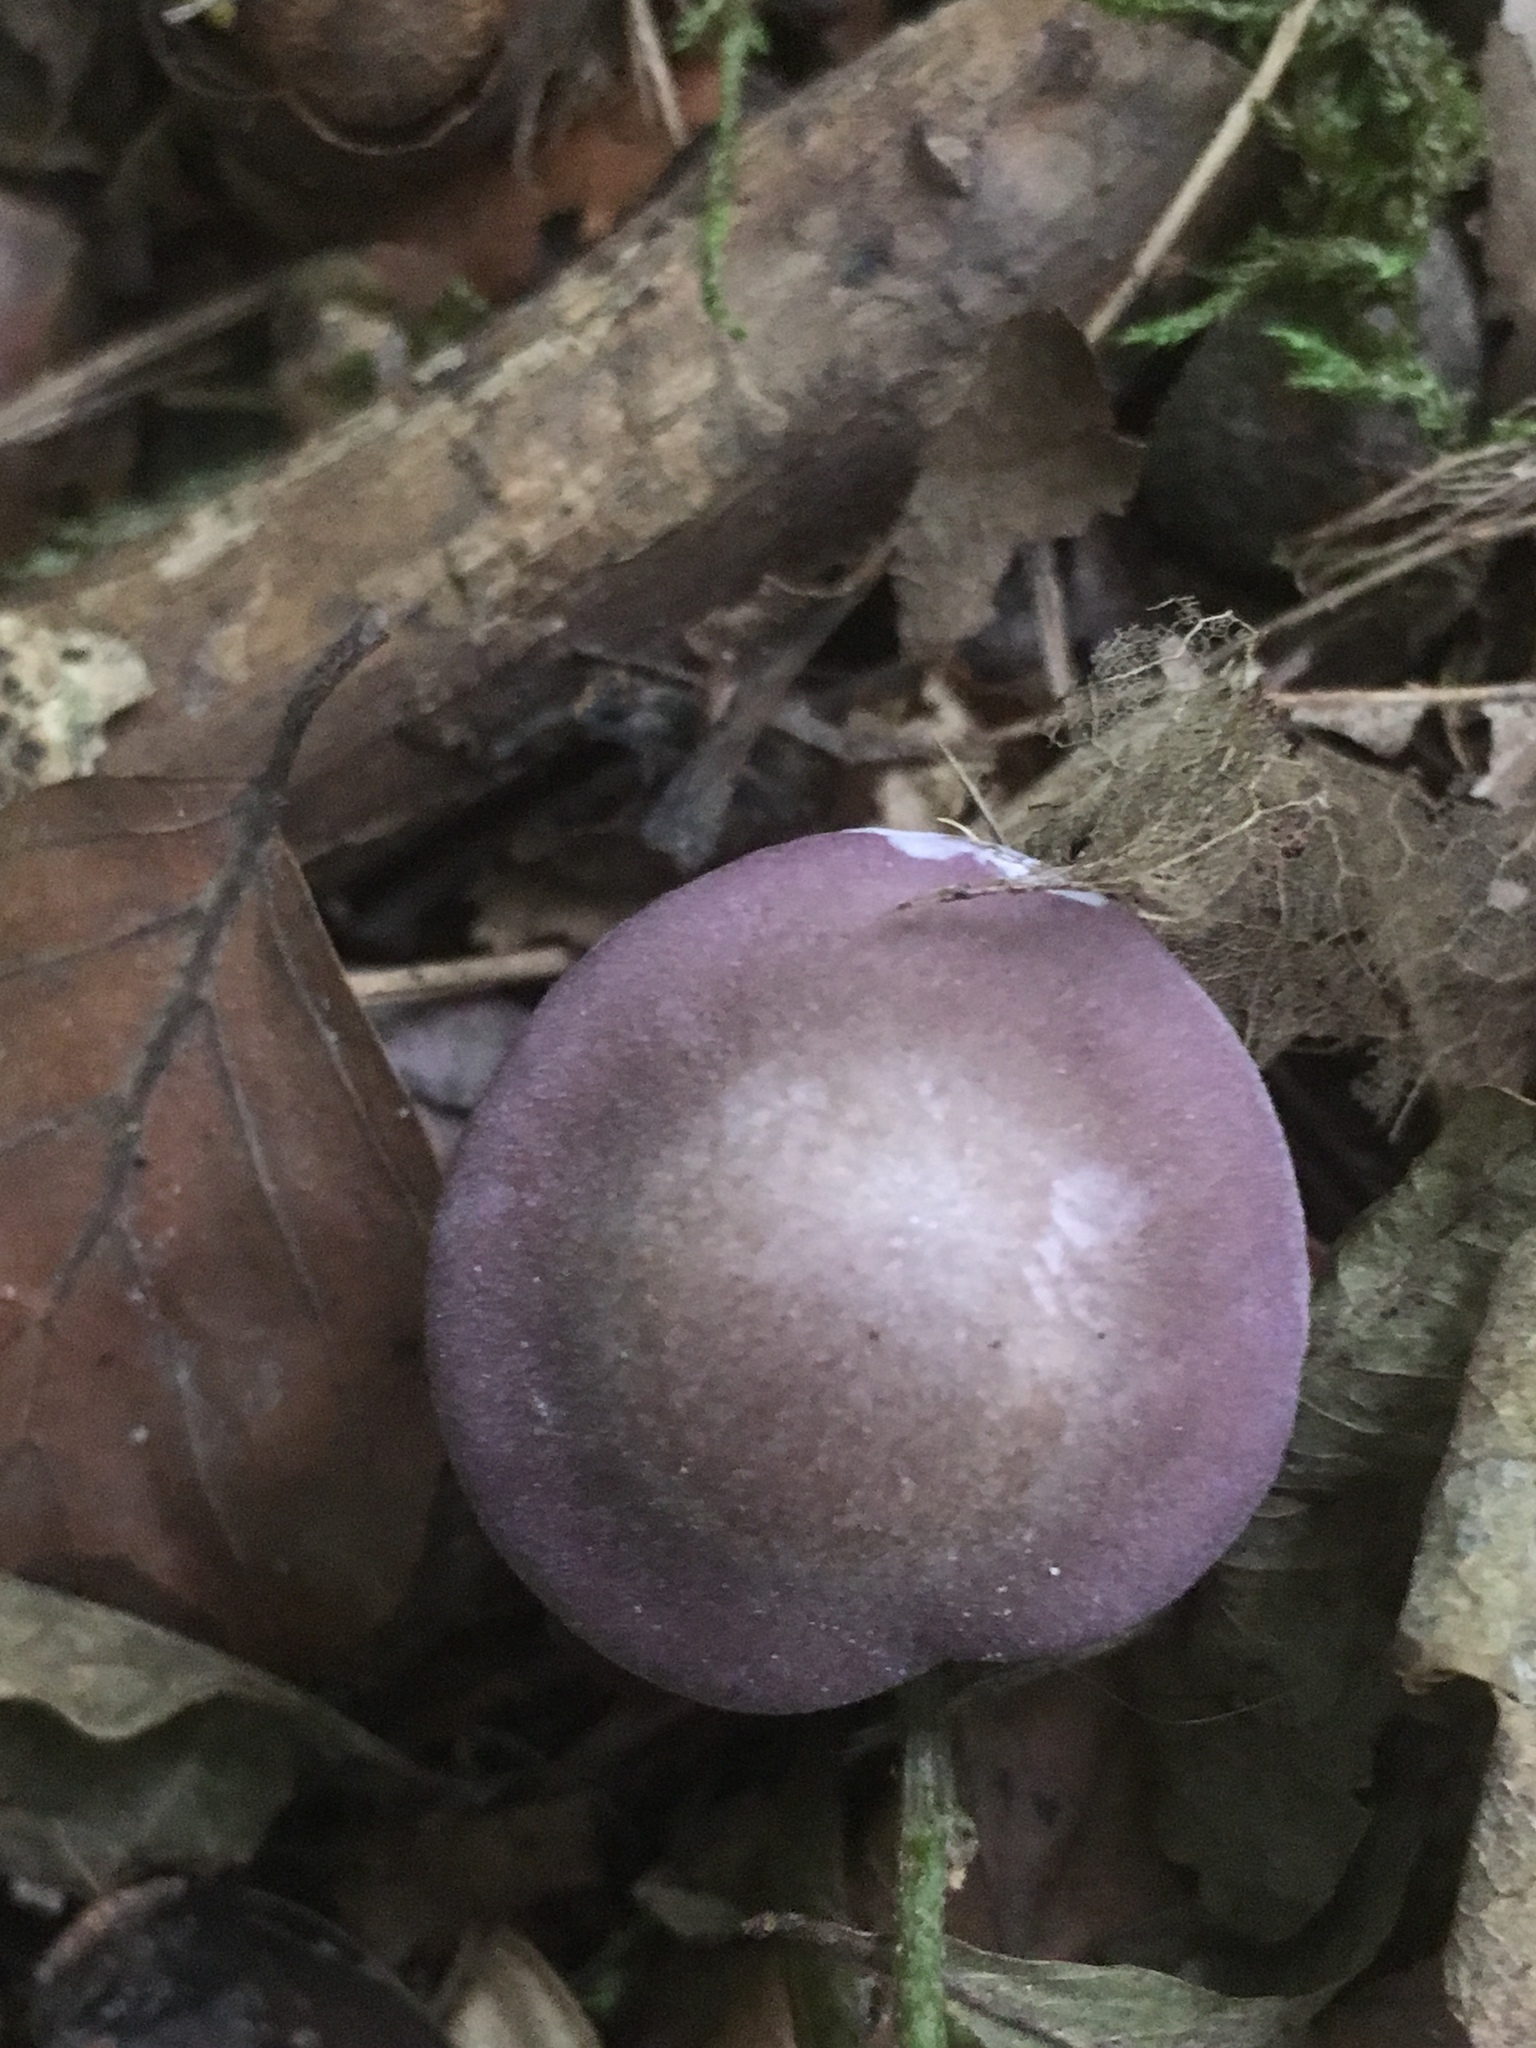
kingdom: Fungi
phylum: Basidiomycota
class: Agaricomycetes
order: Agaricales
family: Tricholomataceae
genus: Collybia
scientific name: Collybia
